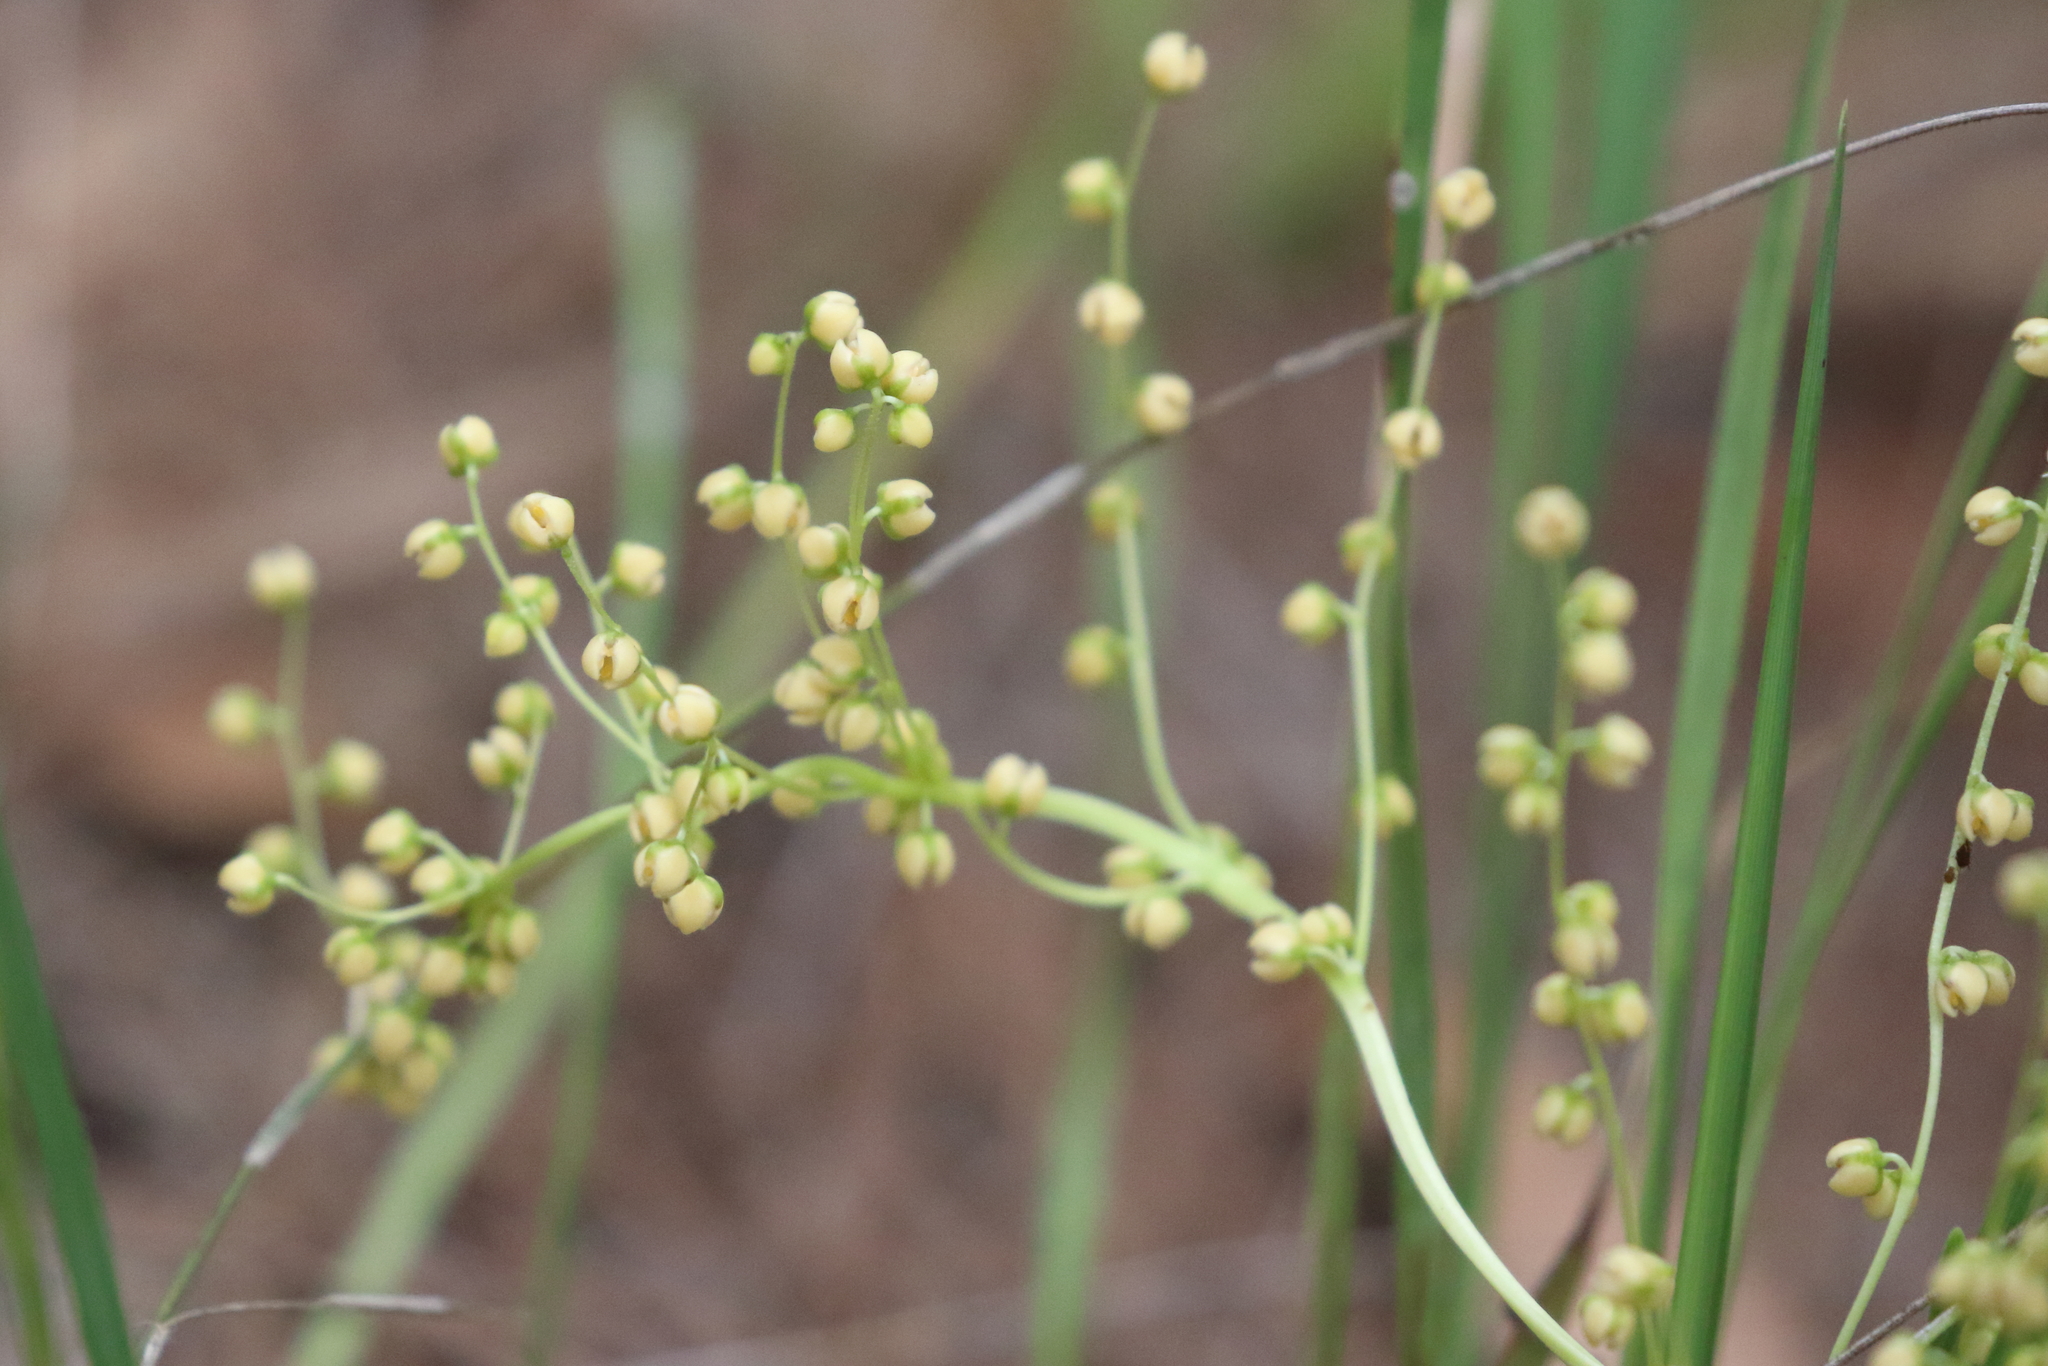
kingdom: Plantae
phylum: Tracheophyta
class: Liliopsida
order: Asparagales
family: Asparagaceae
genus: Lomandra
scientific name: Lomandra laxa
